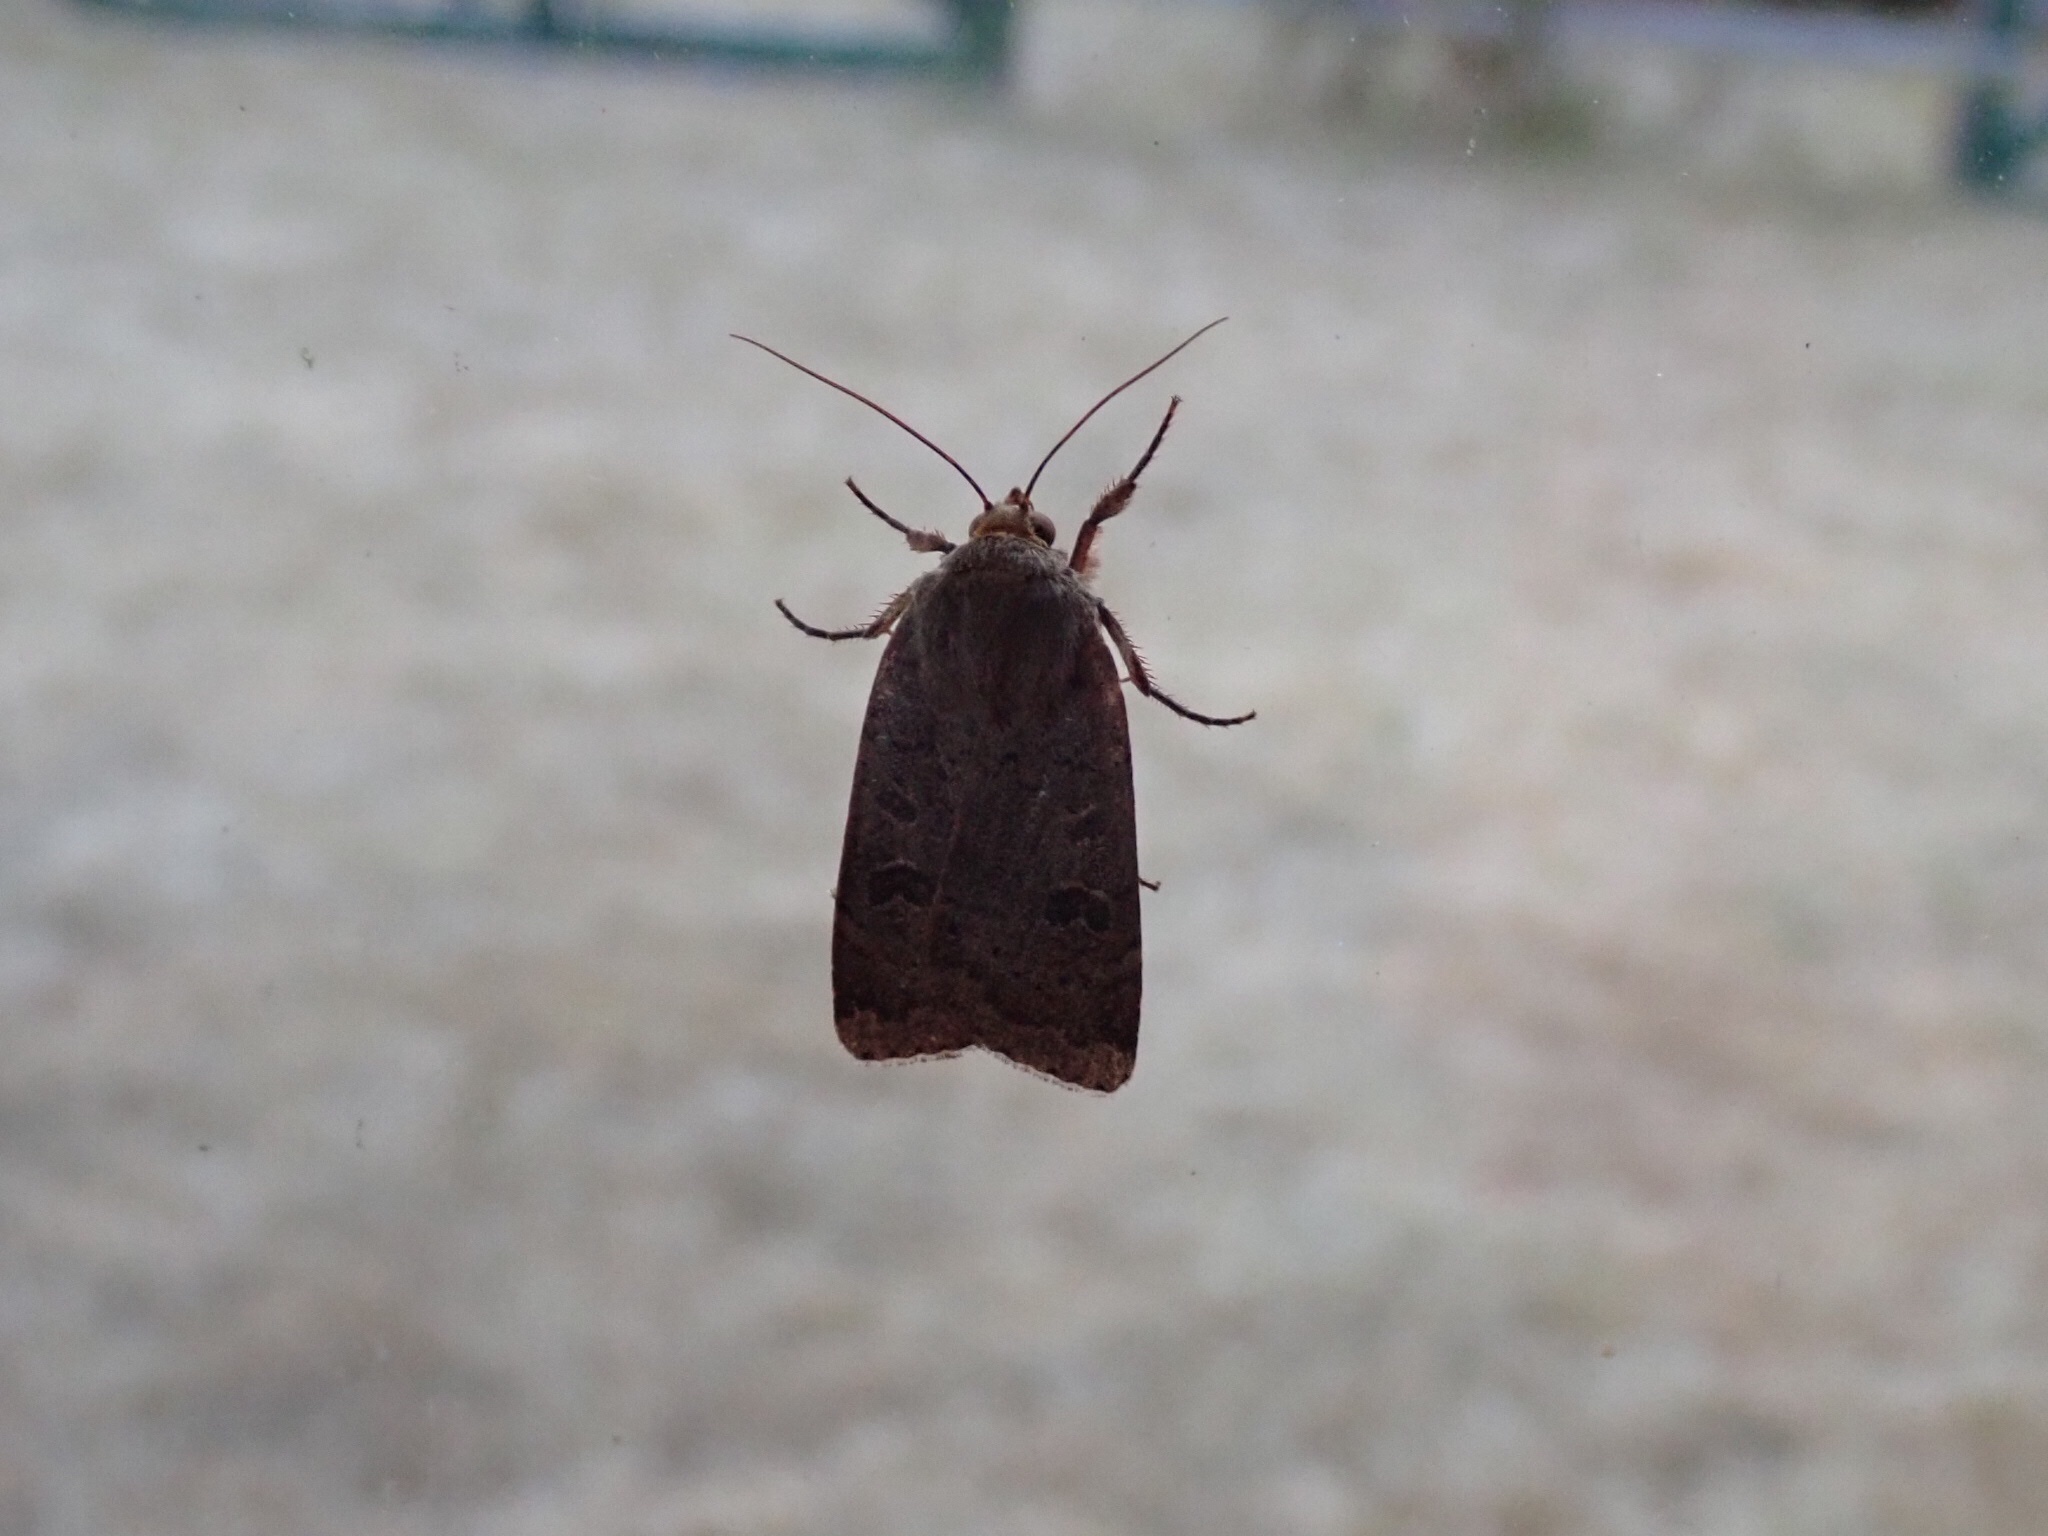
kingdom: Animalia
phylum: Arthropoda
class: Insecta
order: Lepidoptera
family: Noctuidae
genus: Noctua
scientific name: Noctua comes
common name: Lesser yellow underwing
